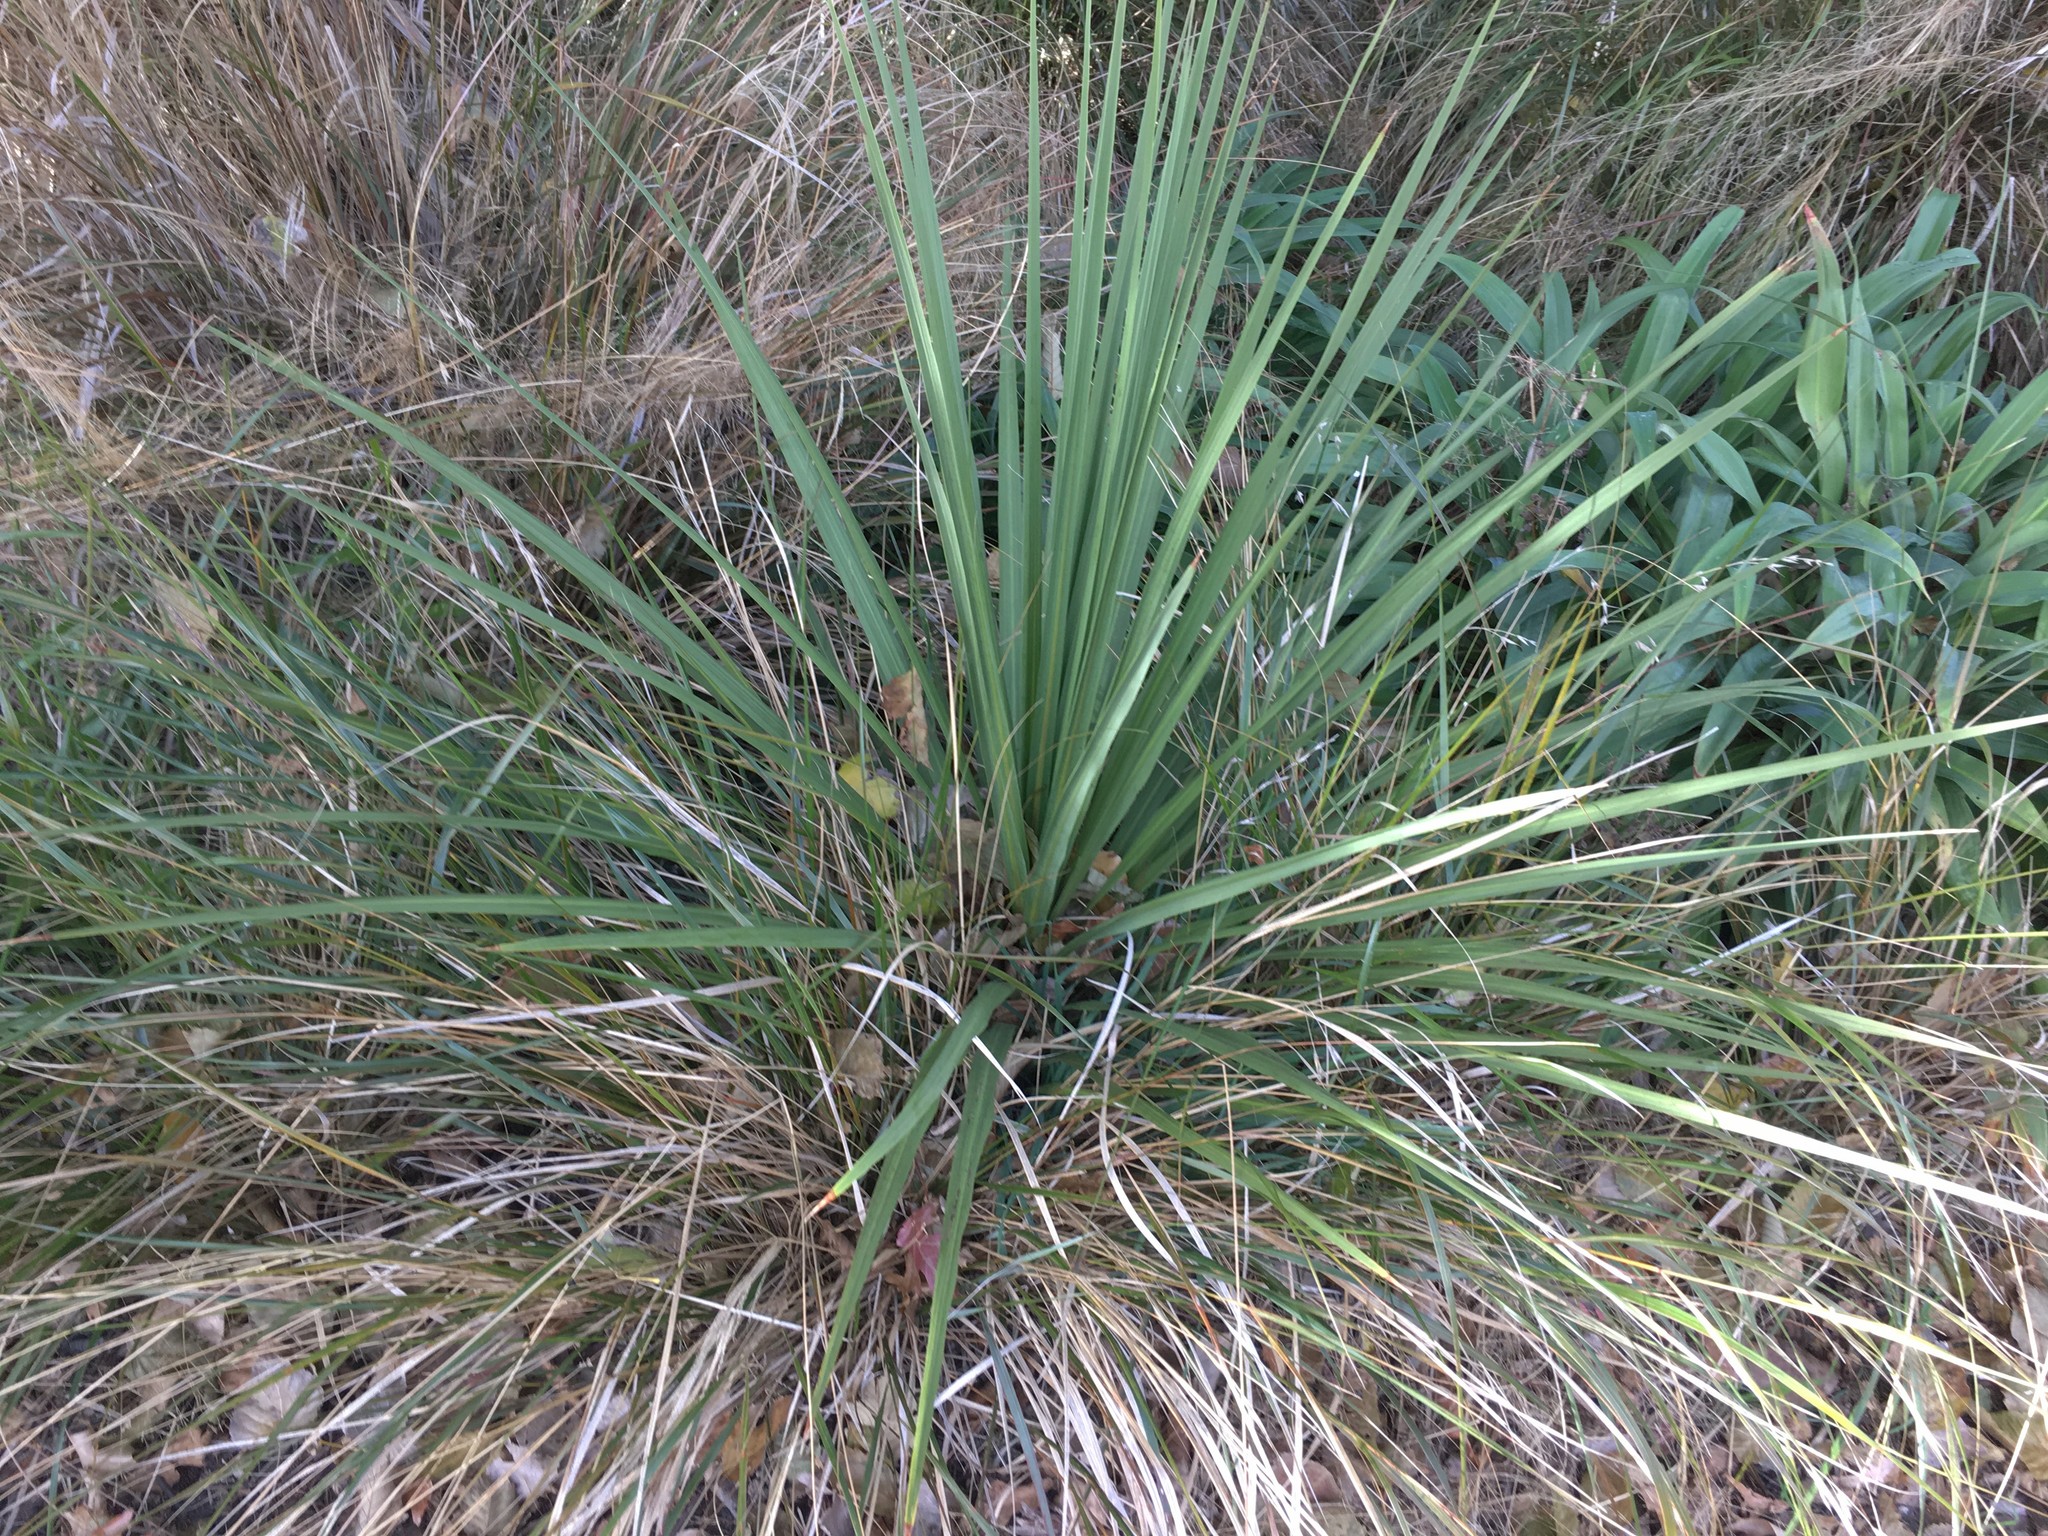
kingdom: Plantae
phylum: Tracheophyta
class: Liliopsida
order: Asparagales
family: Asparagaceae
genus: Cordyline
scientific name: Cordyline australis
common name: Cabbage-palm
